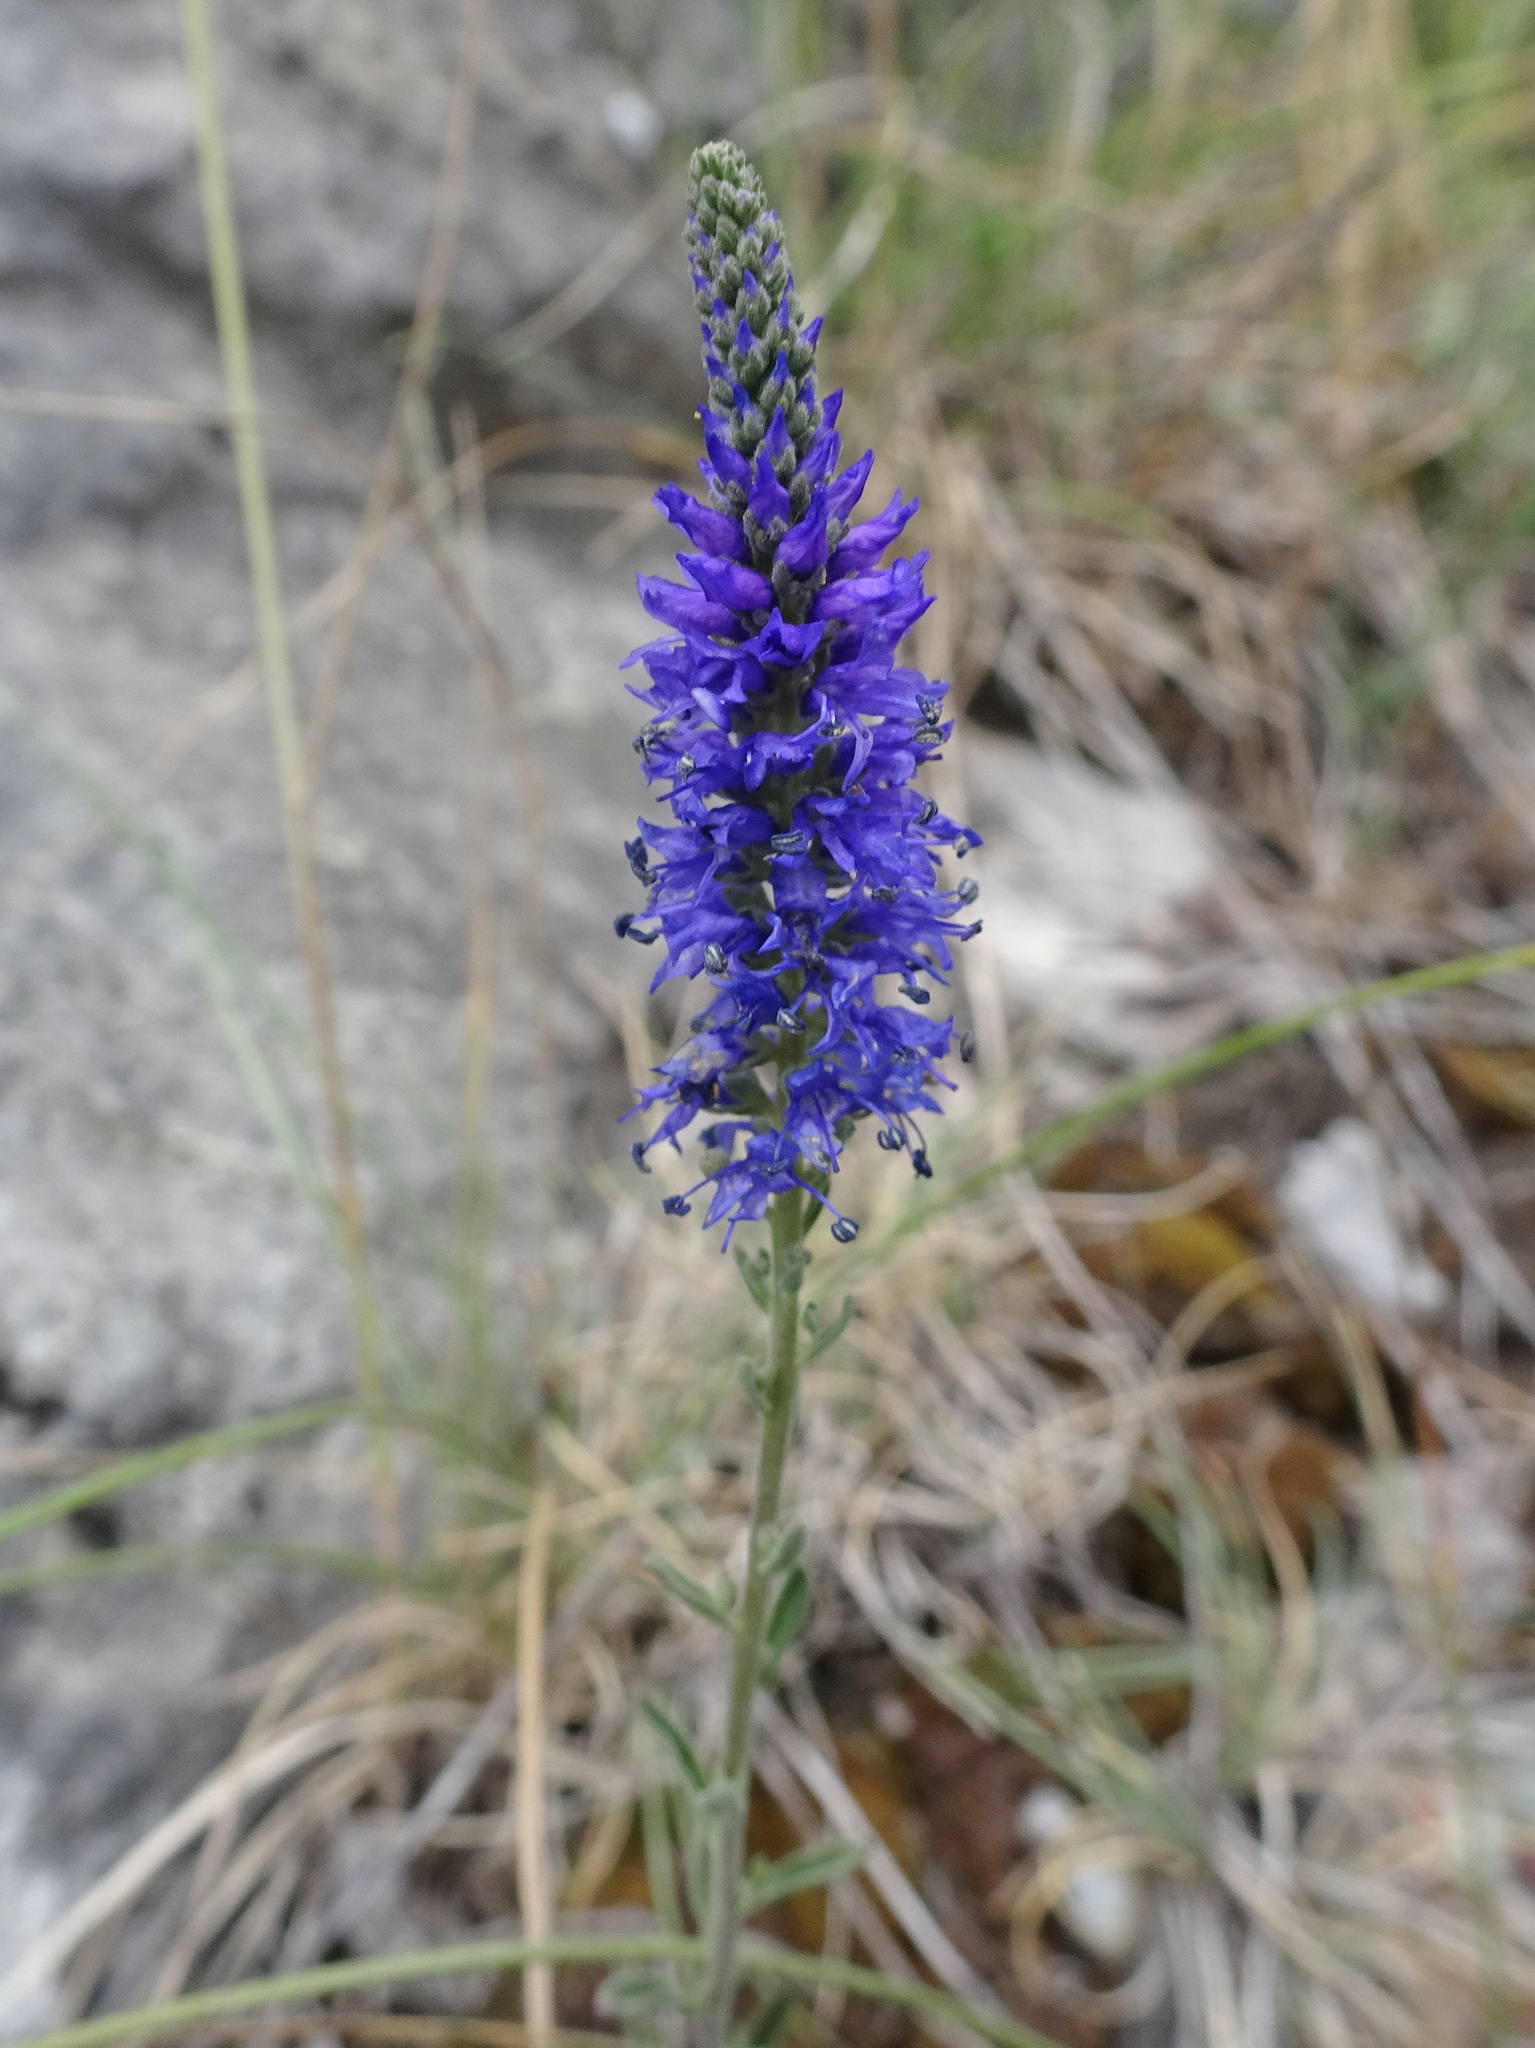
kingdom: Plantae
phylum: Tracheophyta
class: Magnoliopsida
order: Lamiales
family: Plantaginaceae
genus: Veronica
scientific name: Veronica spicata
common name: Spiked speedwell
